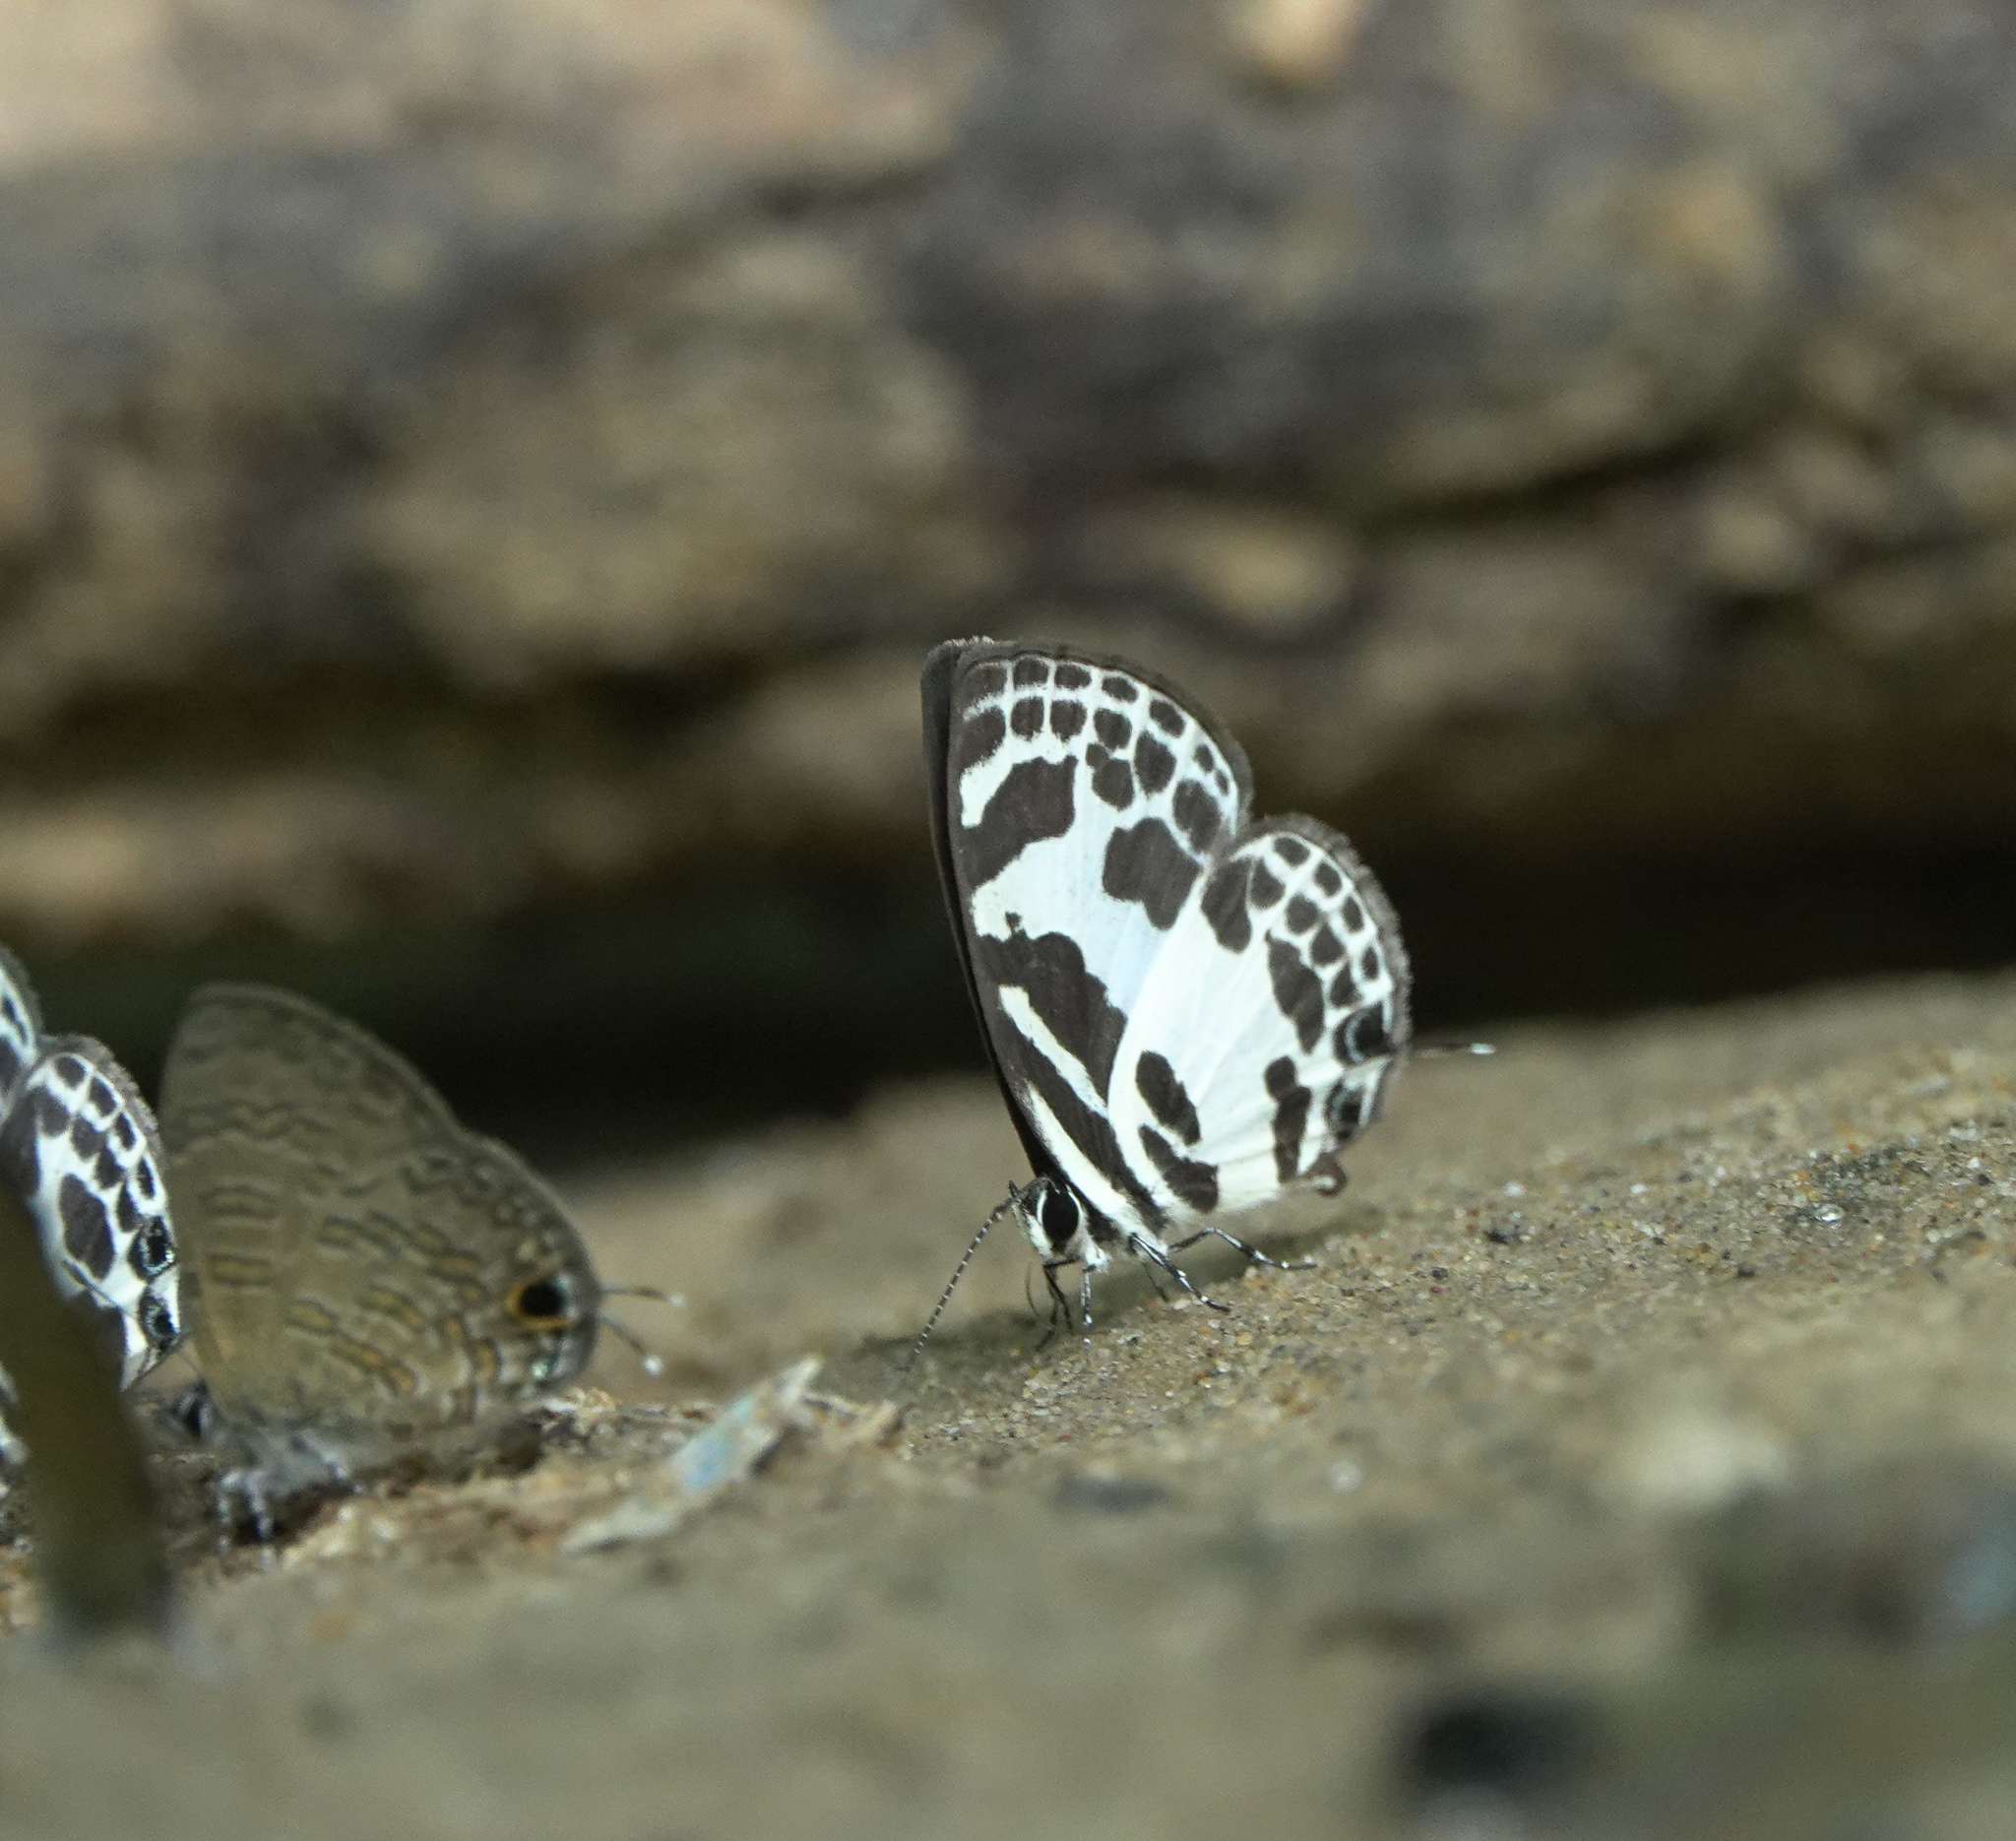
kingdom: Animalia
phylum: Arthropoda
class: Insecta
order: Lepidoptera
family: Lycaenidae
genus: Discolampa
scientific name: Discolampa ethion
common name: Banded blue pierrot
